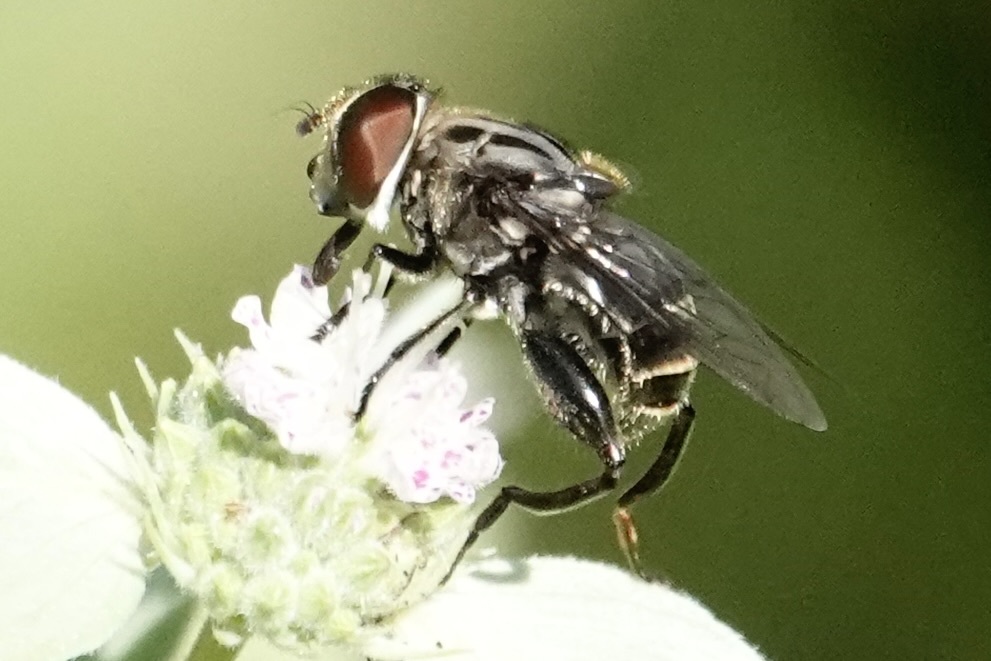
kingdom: Animalia
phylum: Arthropoda
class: Insecta
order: Diptera
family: Syrphidae
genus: Palpada
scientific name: Palpada furcata
